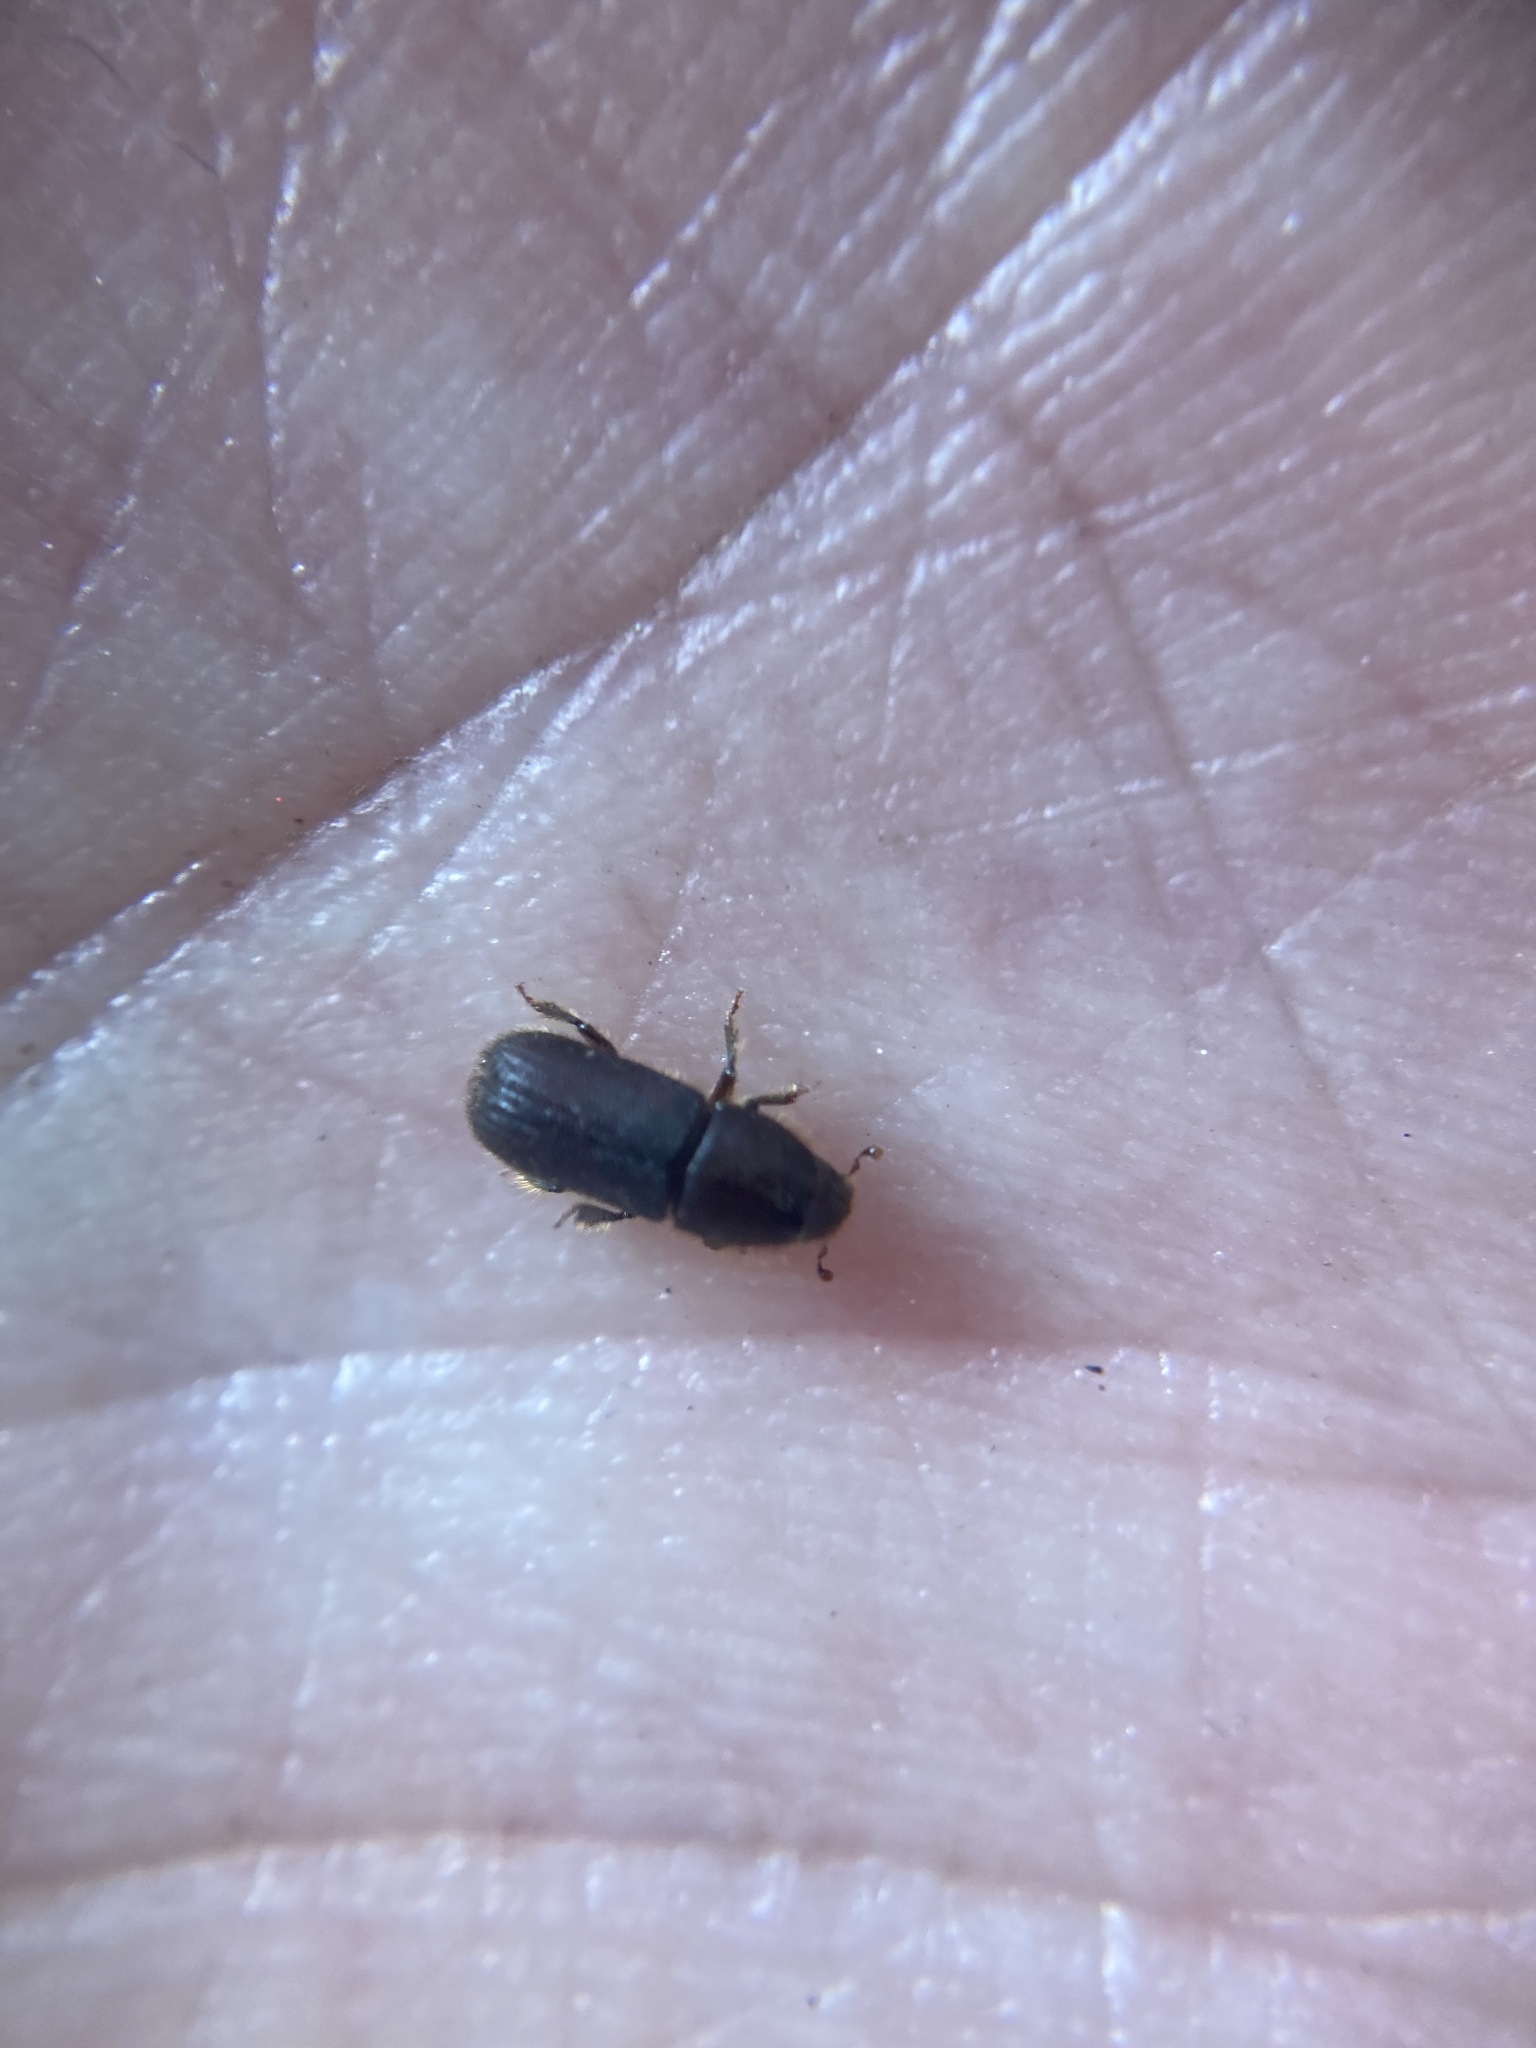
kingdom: Animalia
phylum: Arthropoda
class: Insecta
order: Coleoptera
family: Curculionidae
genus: Hylurgus
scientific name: Hylurgus ligniperda
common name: Goldenhaired bark beetle
